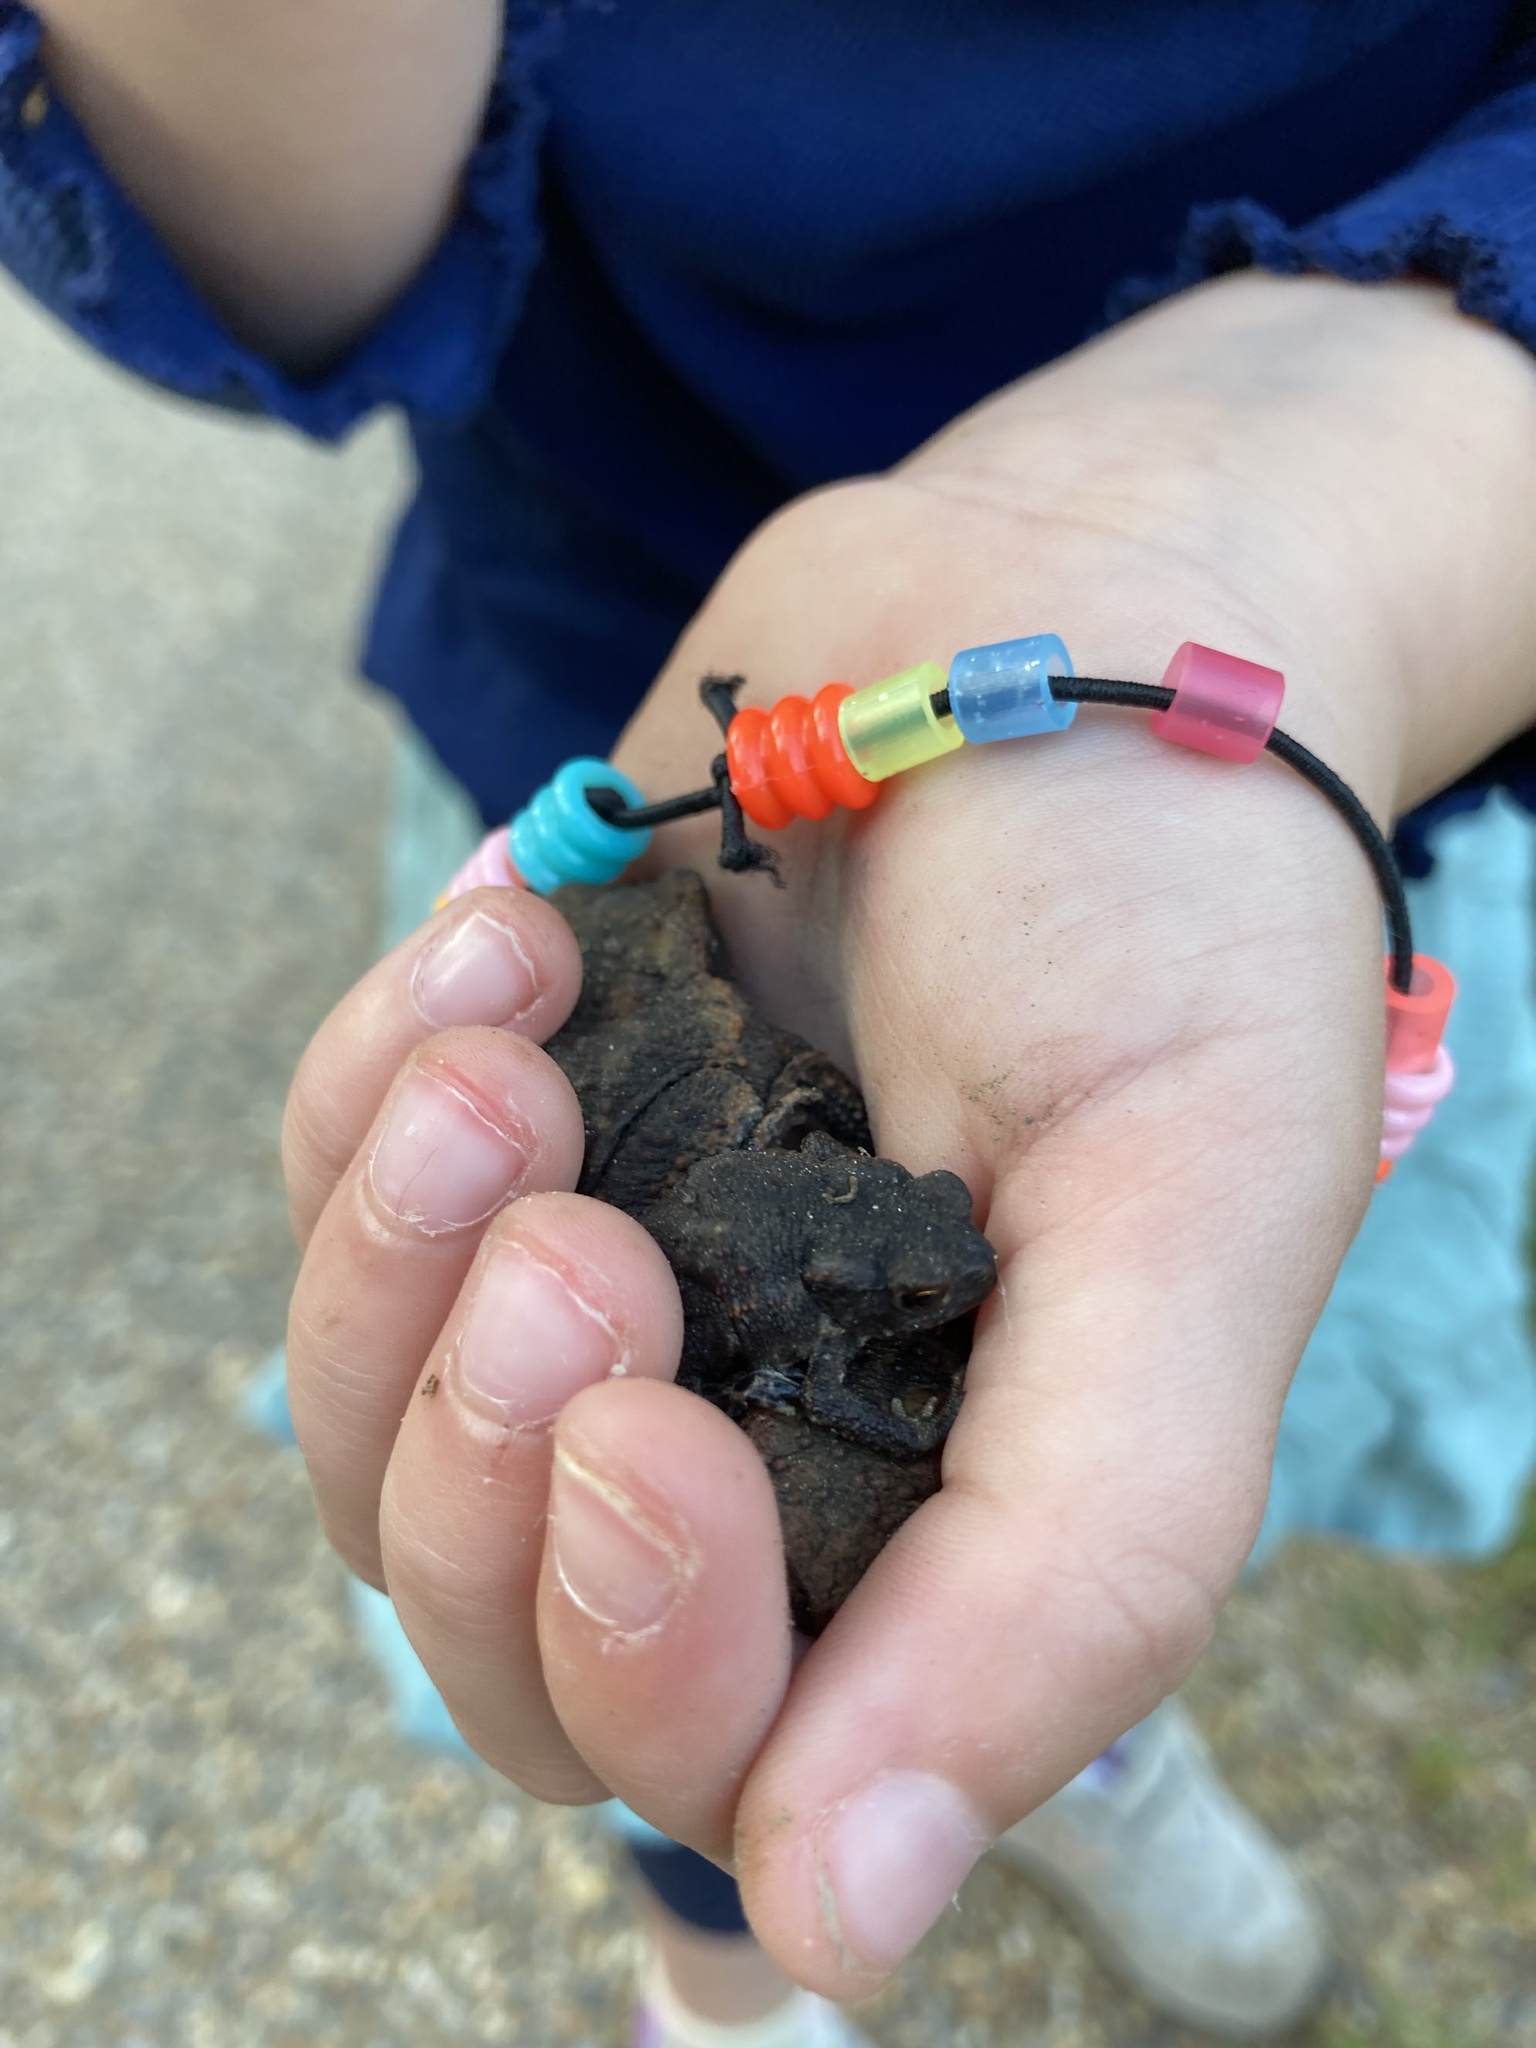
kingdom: Animalia
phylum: Chordata
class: Amphibia
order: Anura
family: Bufonidae
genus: Bufo
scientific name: Bufo bufo
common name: Common toad
